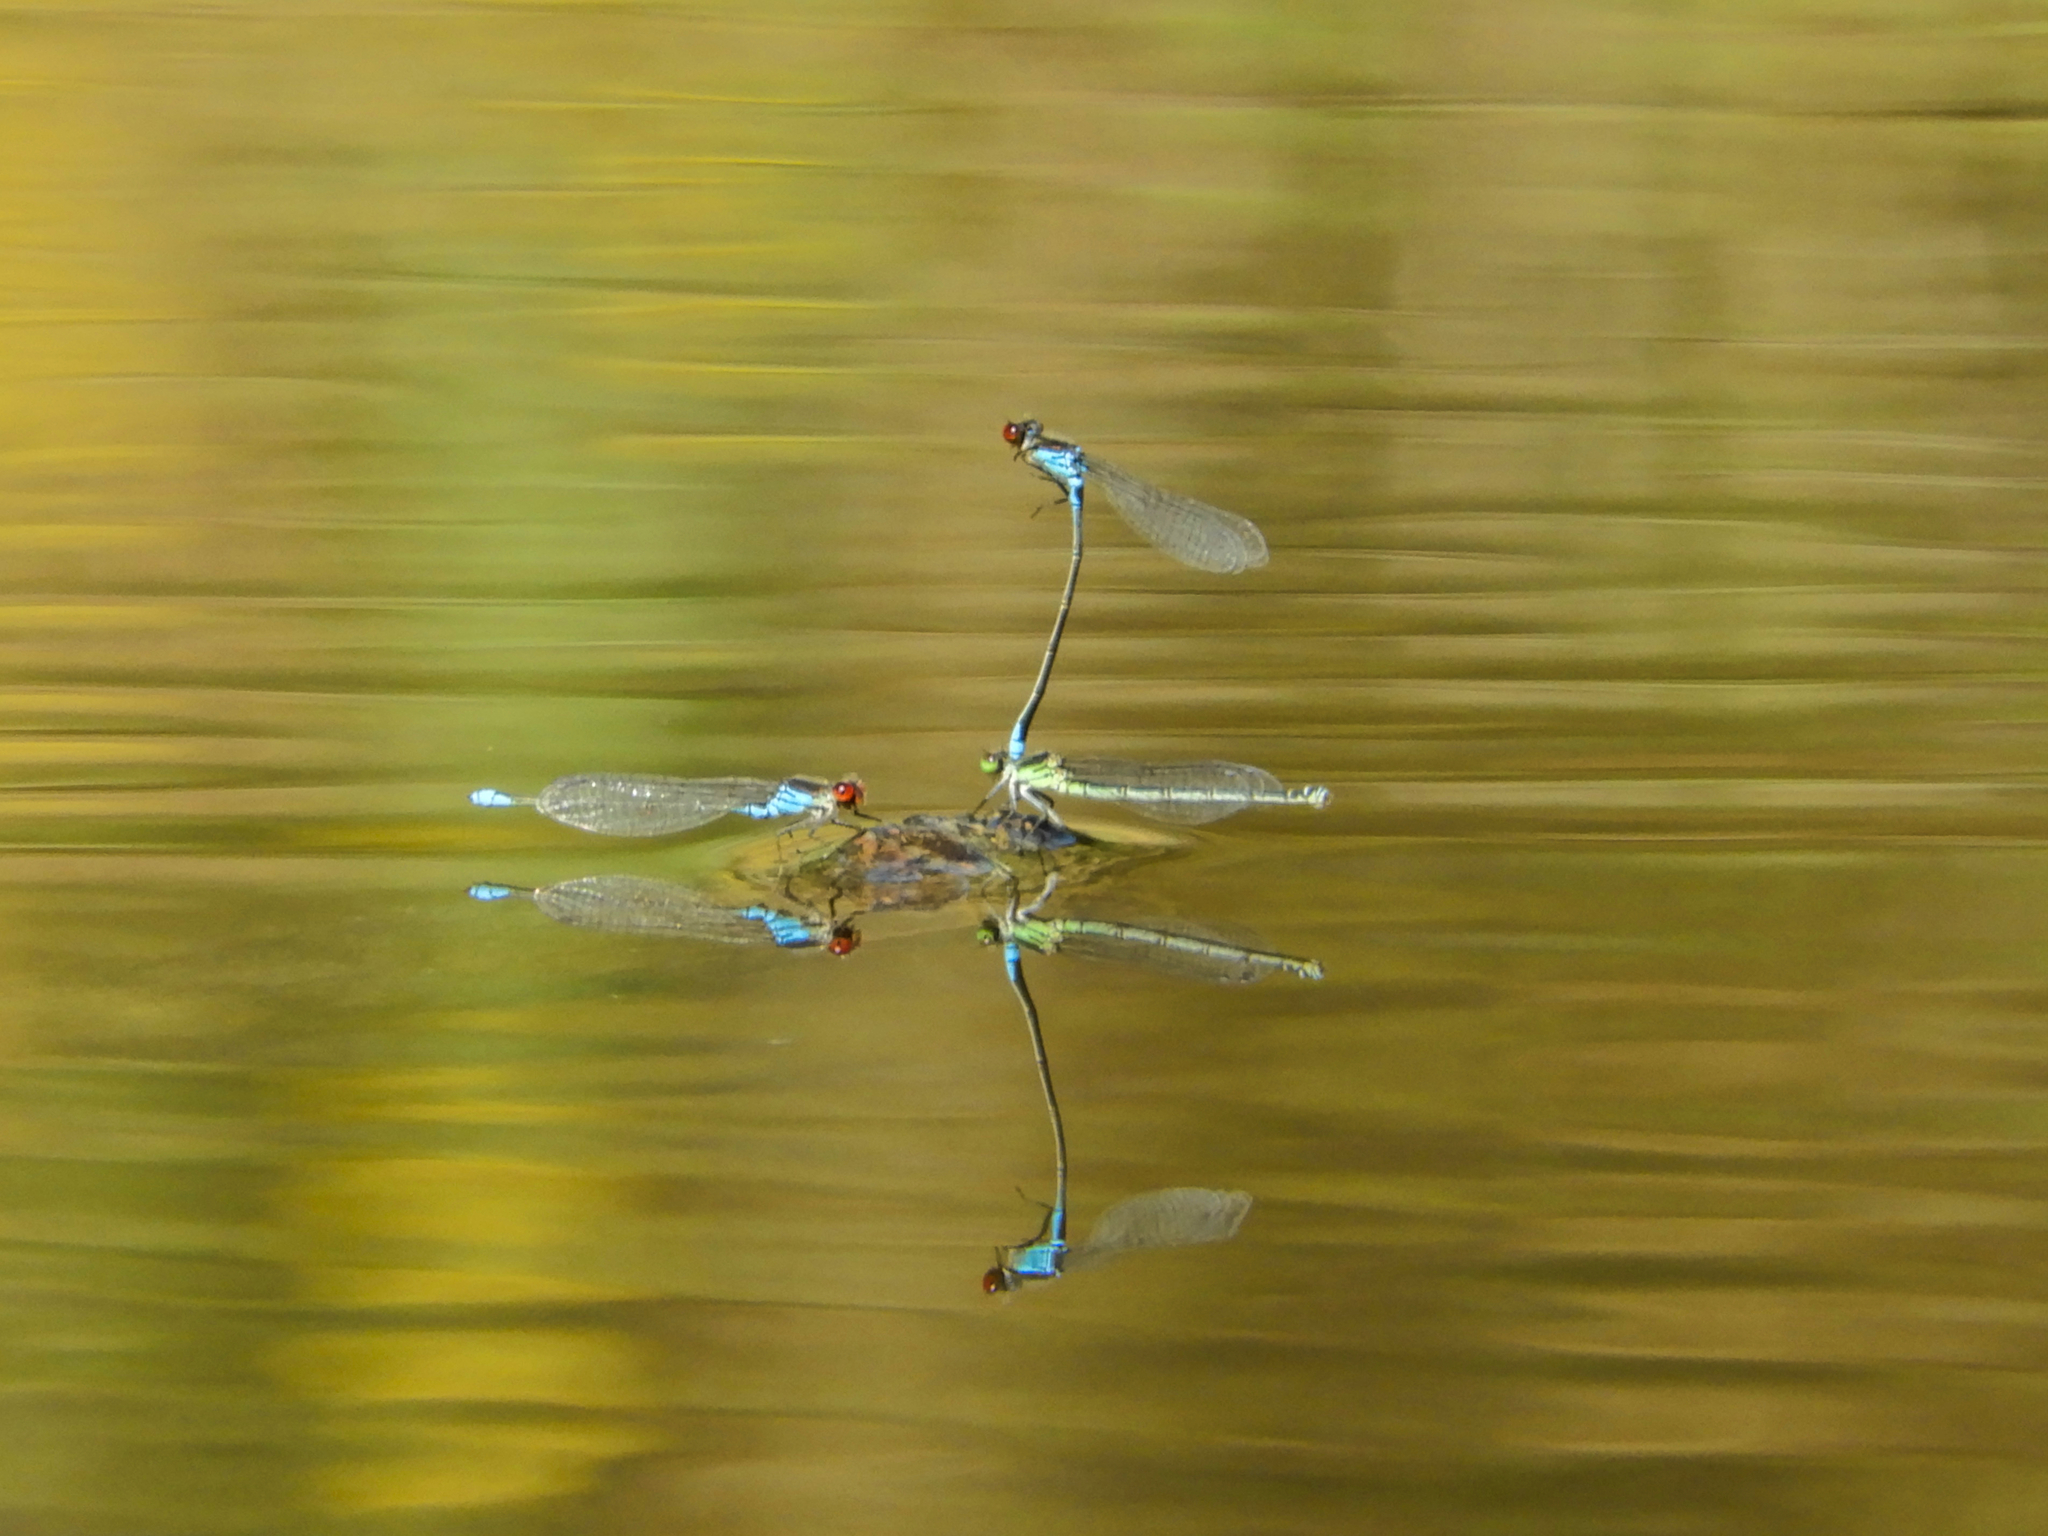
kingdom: Animalia
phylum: Arthropoda
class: Insecta
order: Odonata
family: Coenagrionidae
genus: Erythromma
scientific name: Erythromma viridulum
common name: Small red-eyed damselfly
